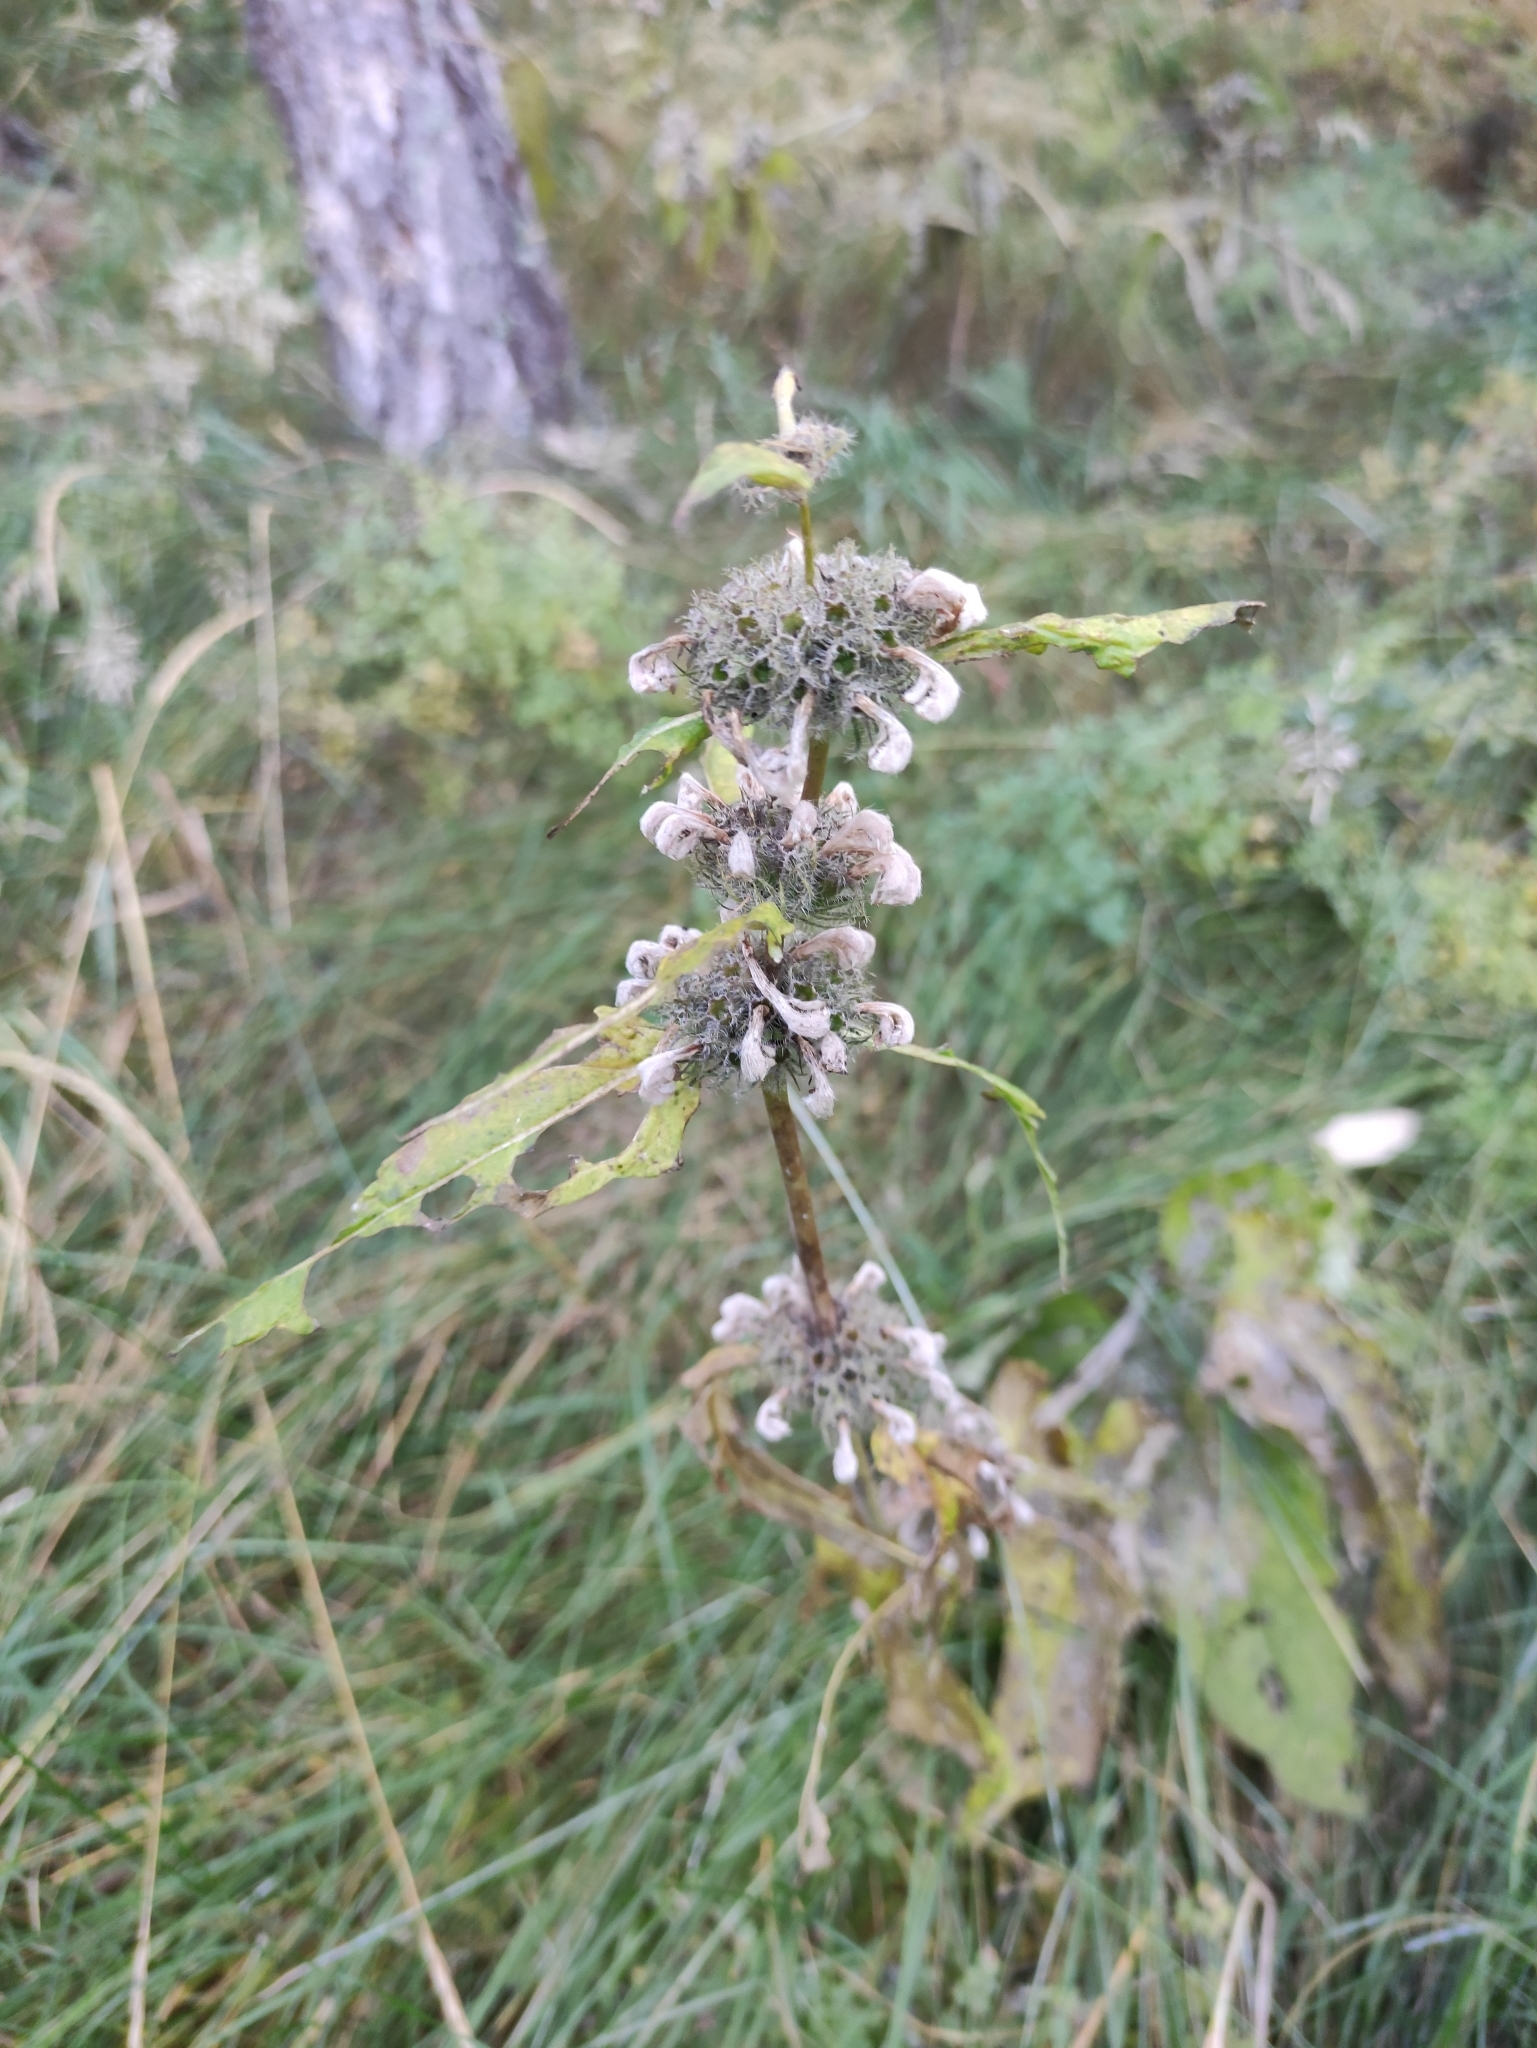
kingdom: Plantae
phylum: Tracheophyta
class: Magnoliopsida
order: Lamiales
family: Lamiaceae
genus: Phlomoides
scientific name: Phlomoides tuberosa
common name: Tuberous jerusalem sage
